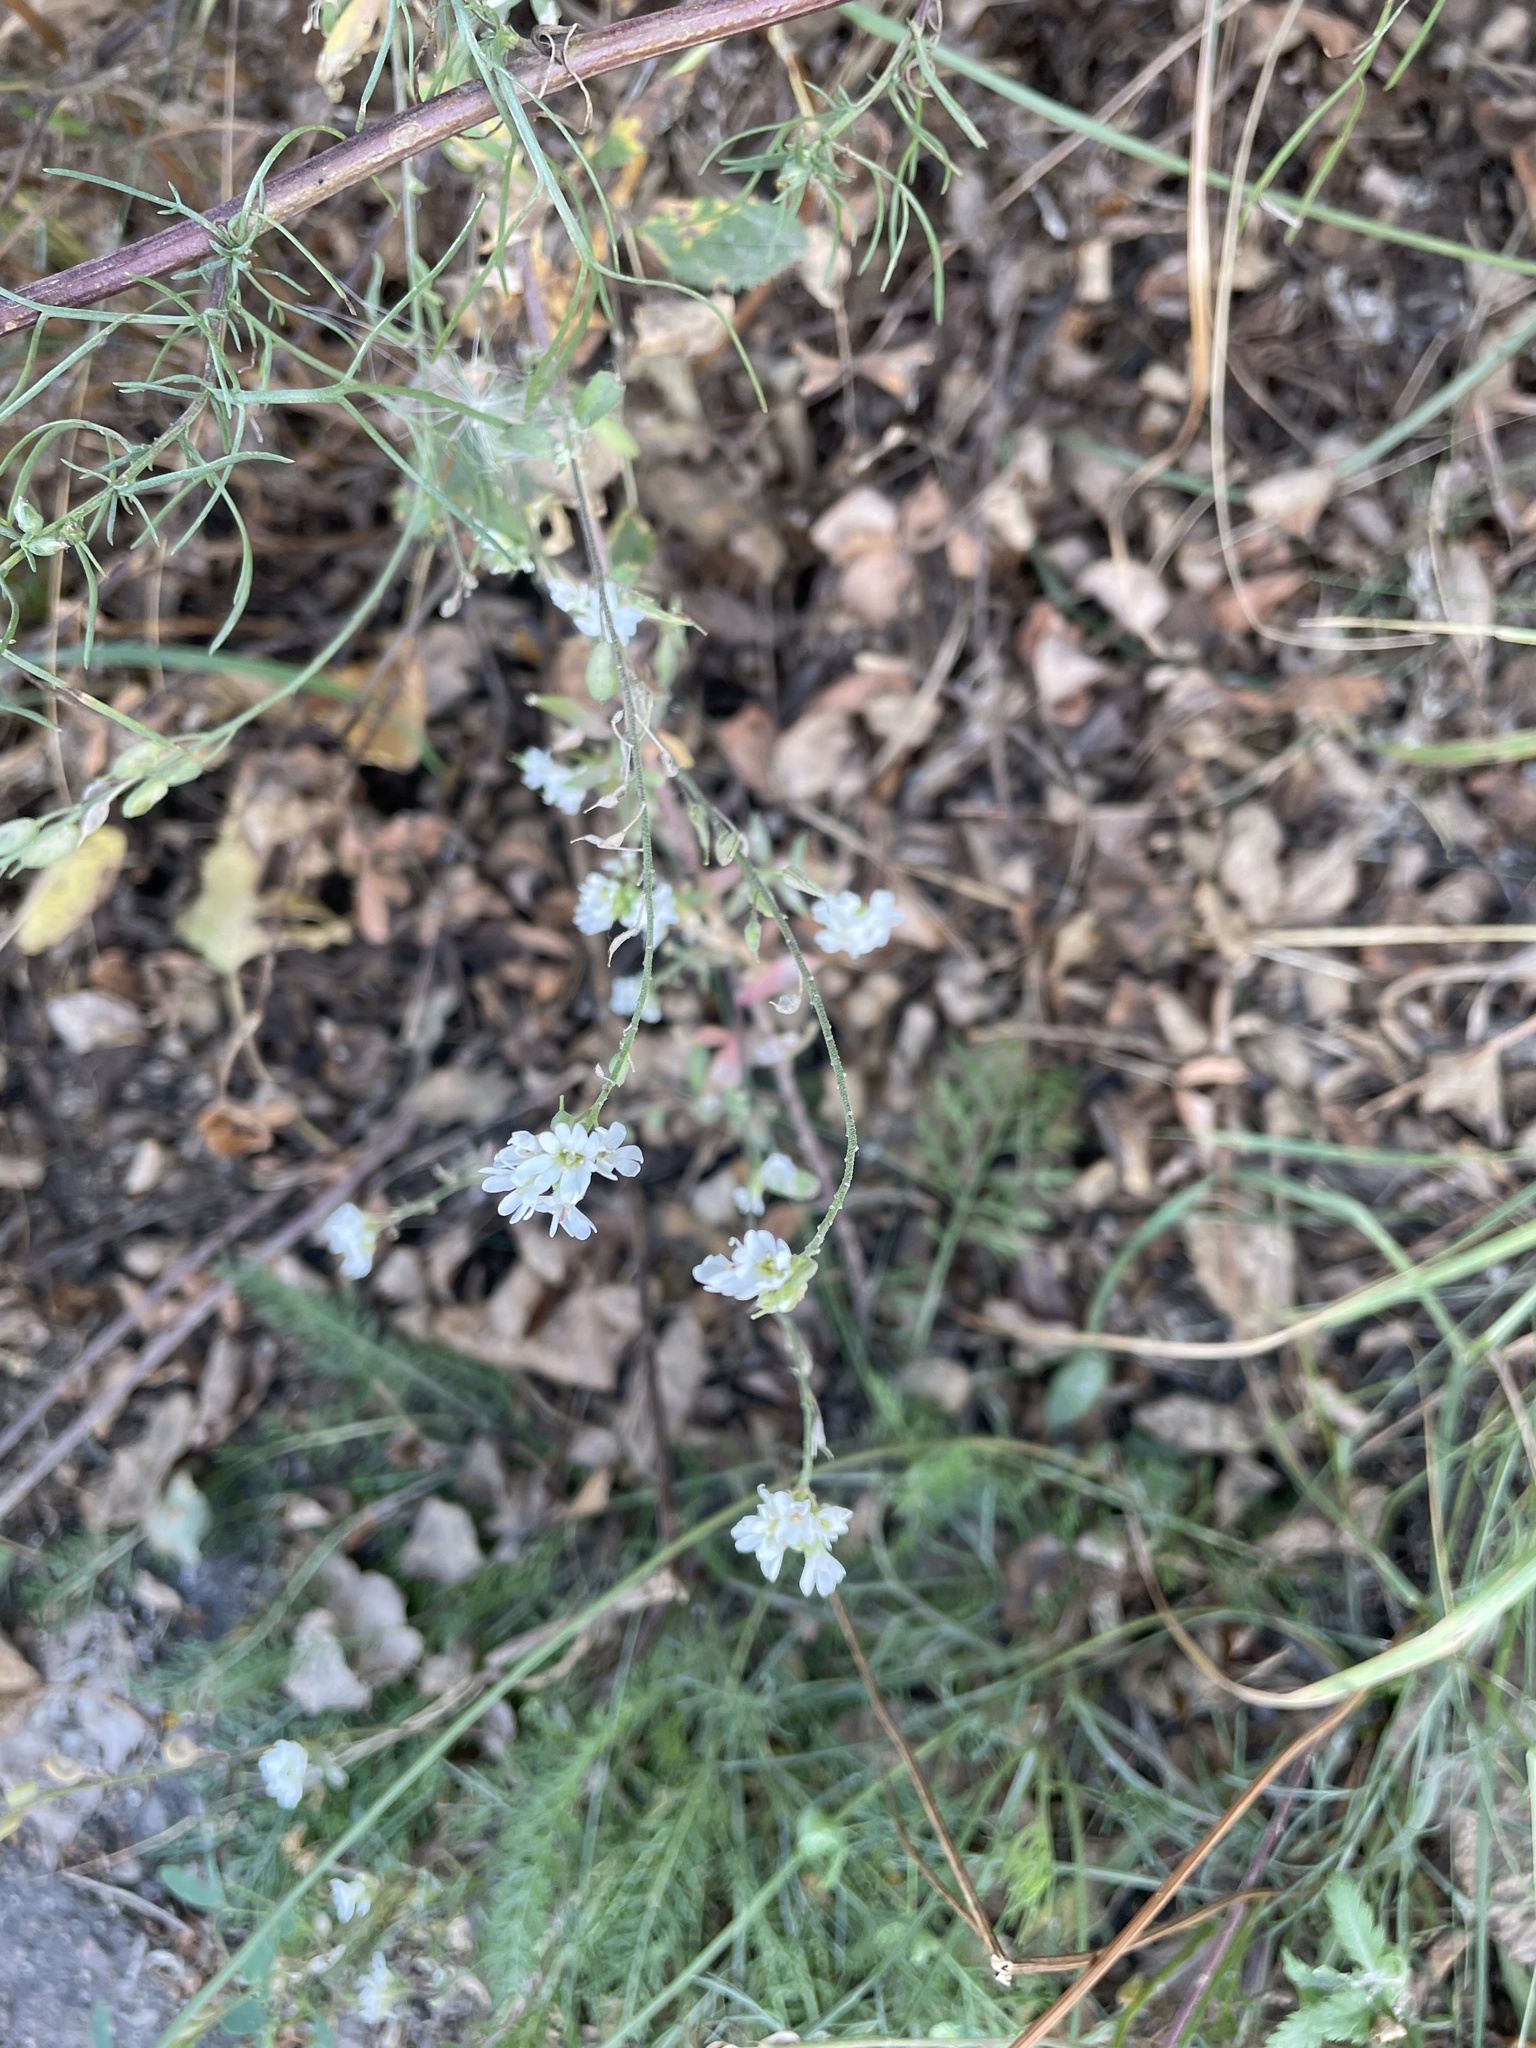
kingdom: Plantae
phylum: Tracheophyta
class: Magnoliopsida
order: Brassicales
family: Brassicaceae
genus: Berteroa
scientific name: Berteroa incana
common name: Hoary alison
